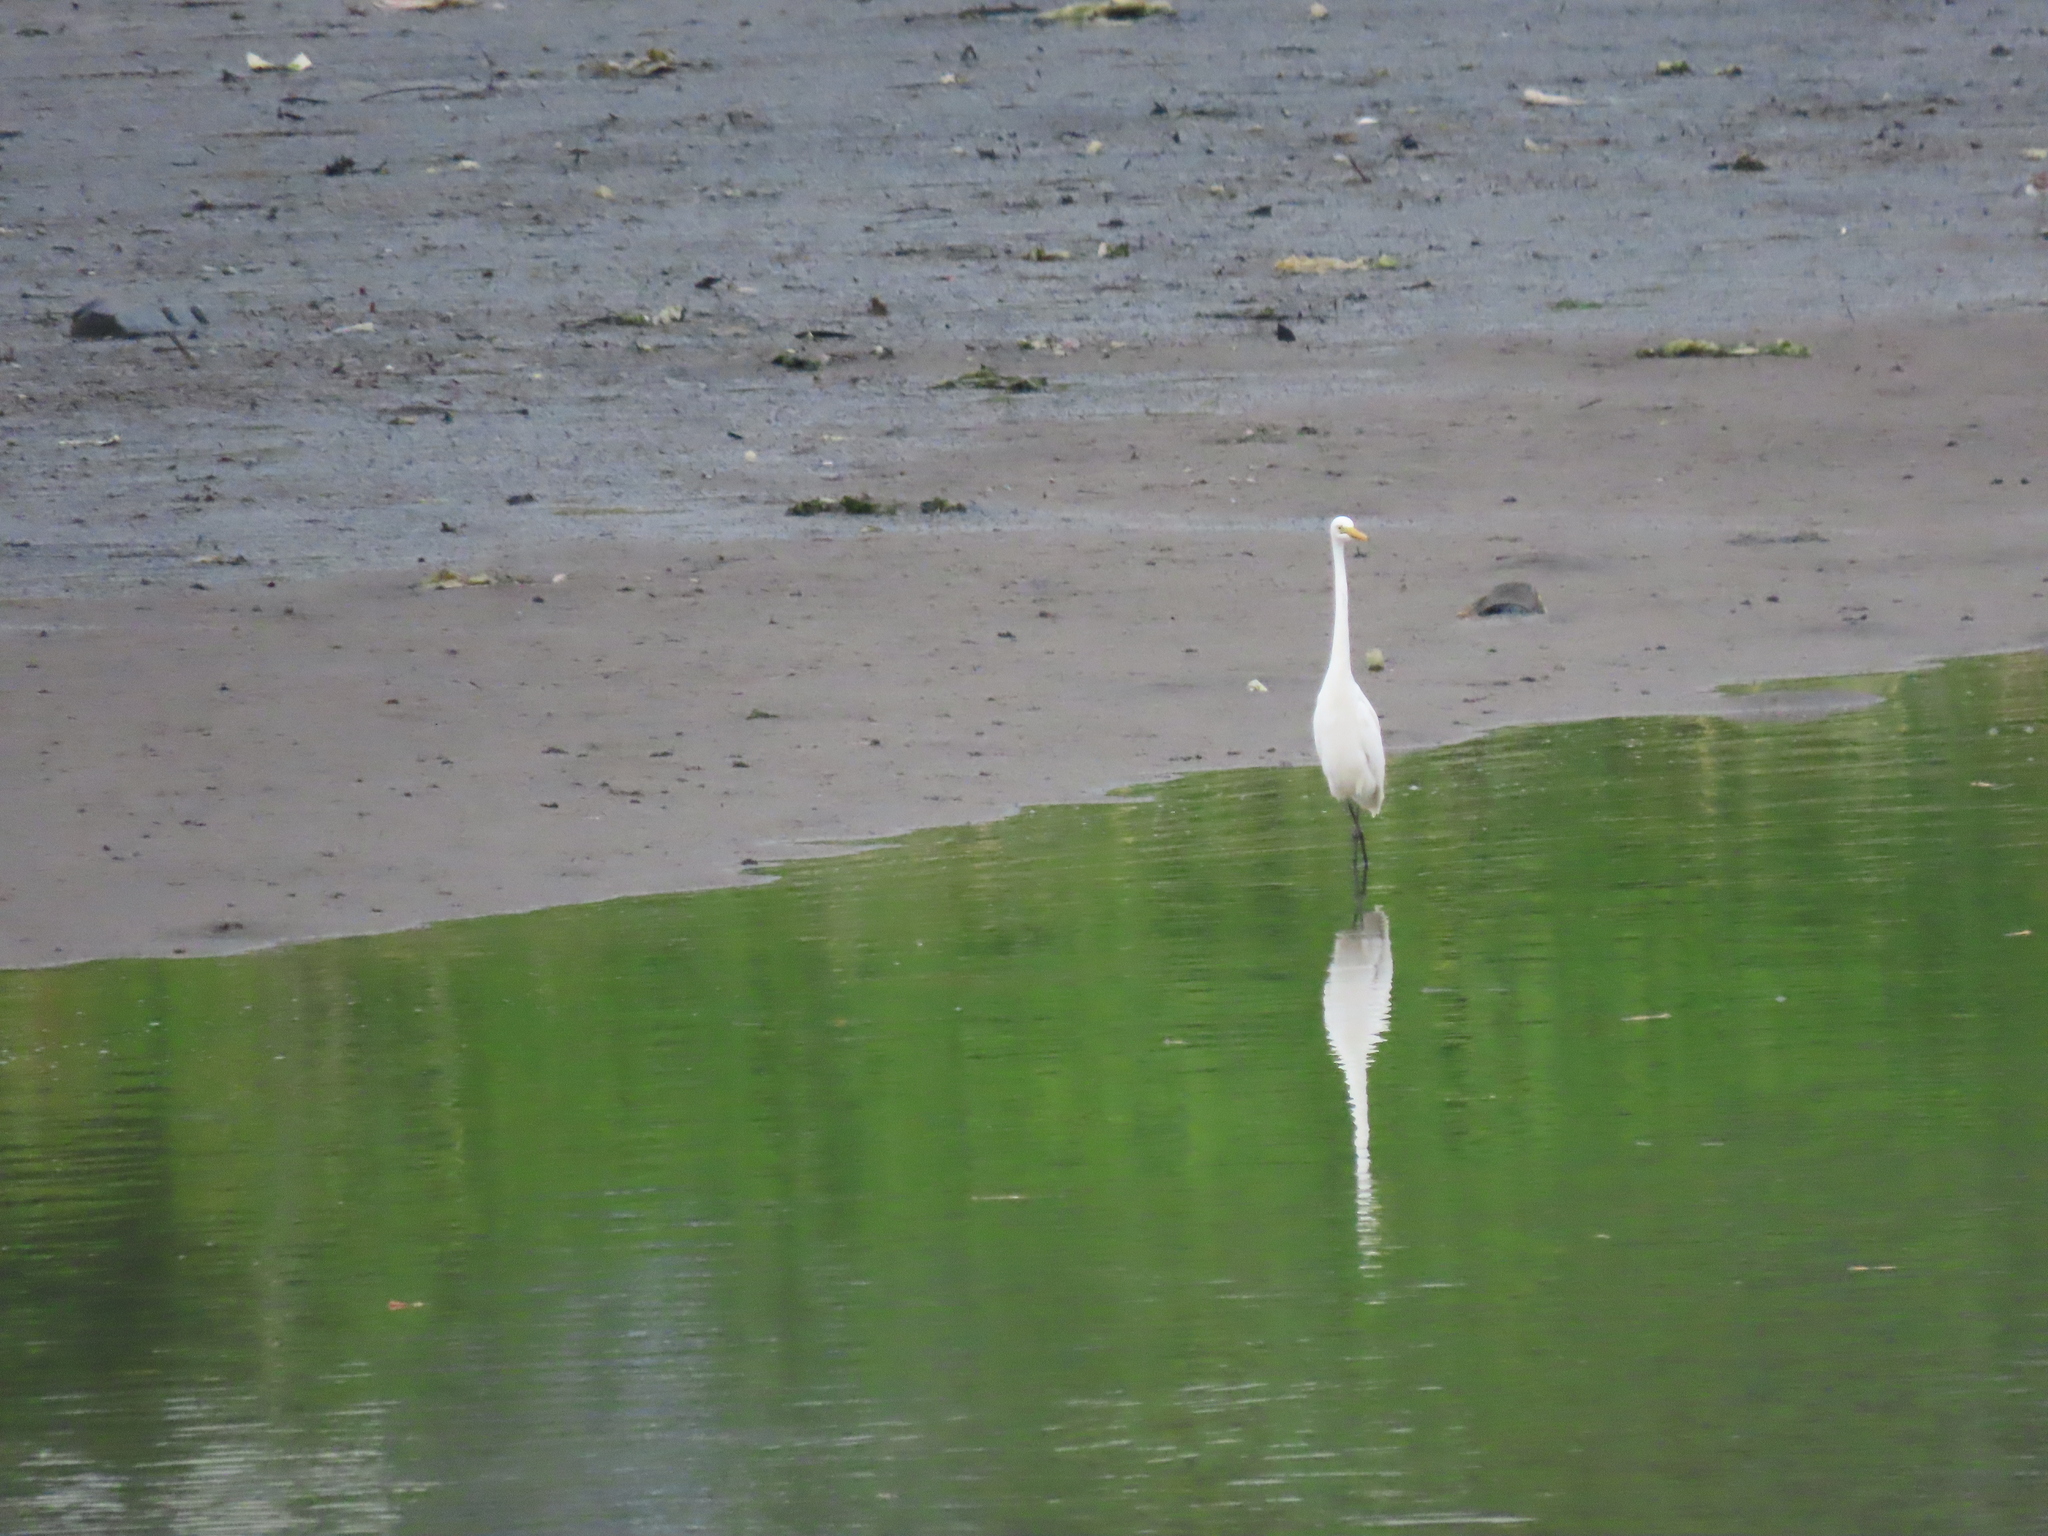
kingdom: Animalia
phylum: Chordata
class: Aves
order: Pelecaniformes
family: Ardeidae
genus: Ardea
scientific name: Ardea alba
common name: Great egret
